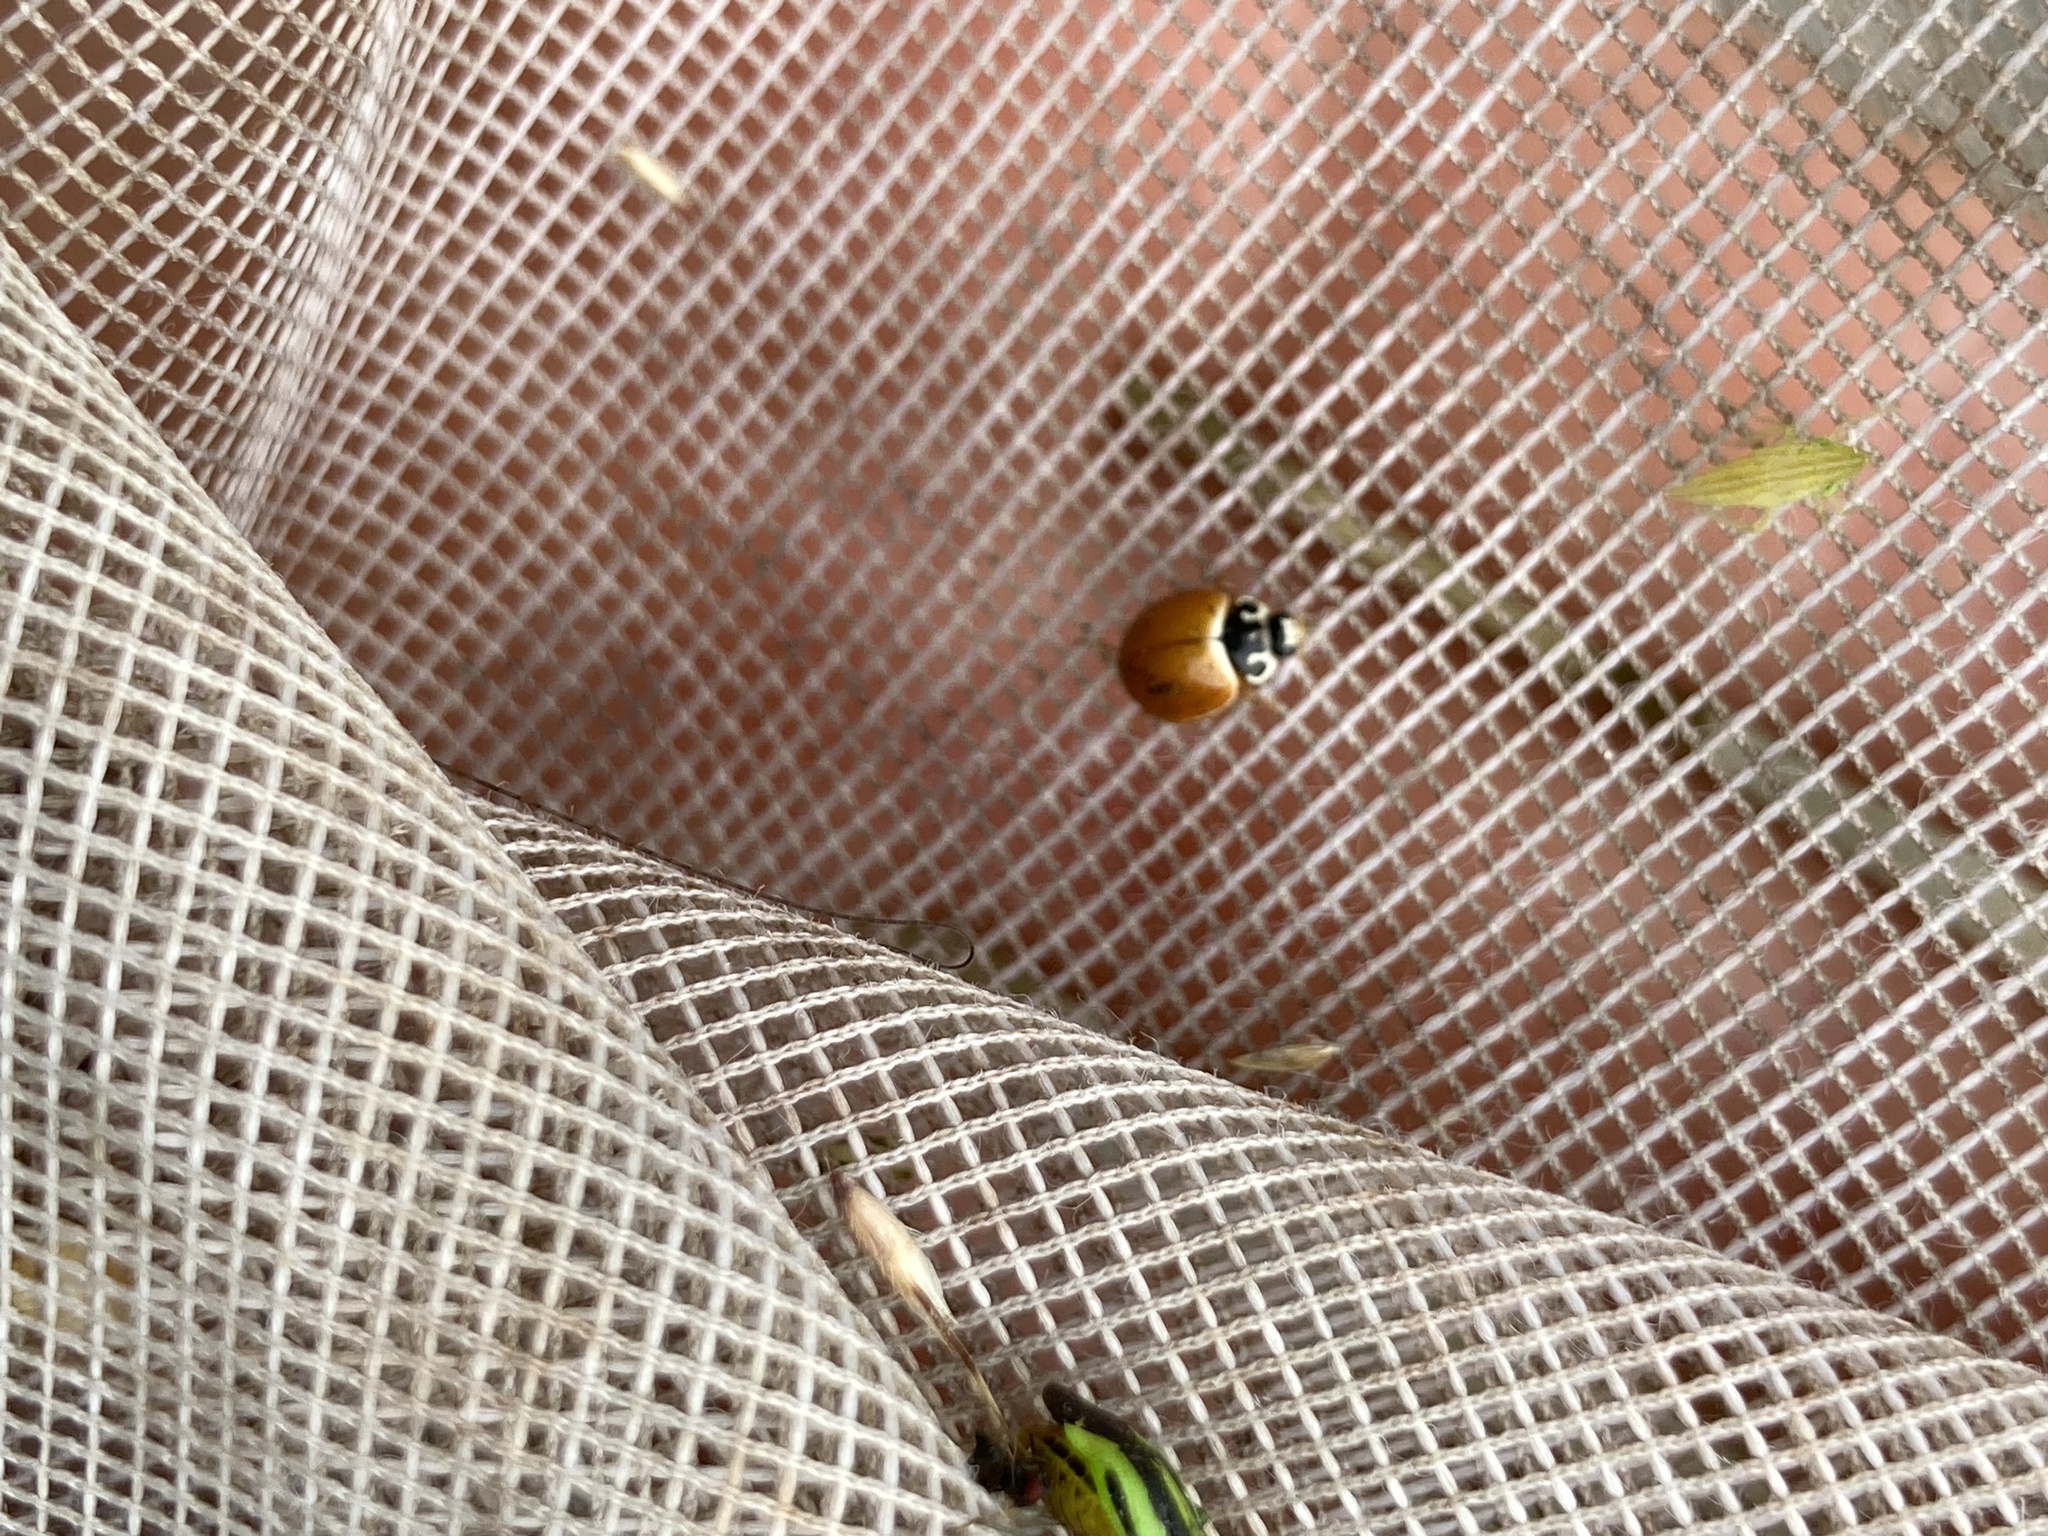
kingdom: Animalia
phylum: Arthropoda
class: Insecta
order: Coleoptera
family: Coccinellidae
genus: Cycloneda
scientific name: Cycloneda munda
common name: Polished lady beetle
